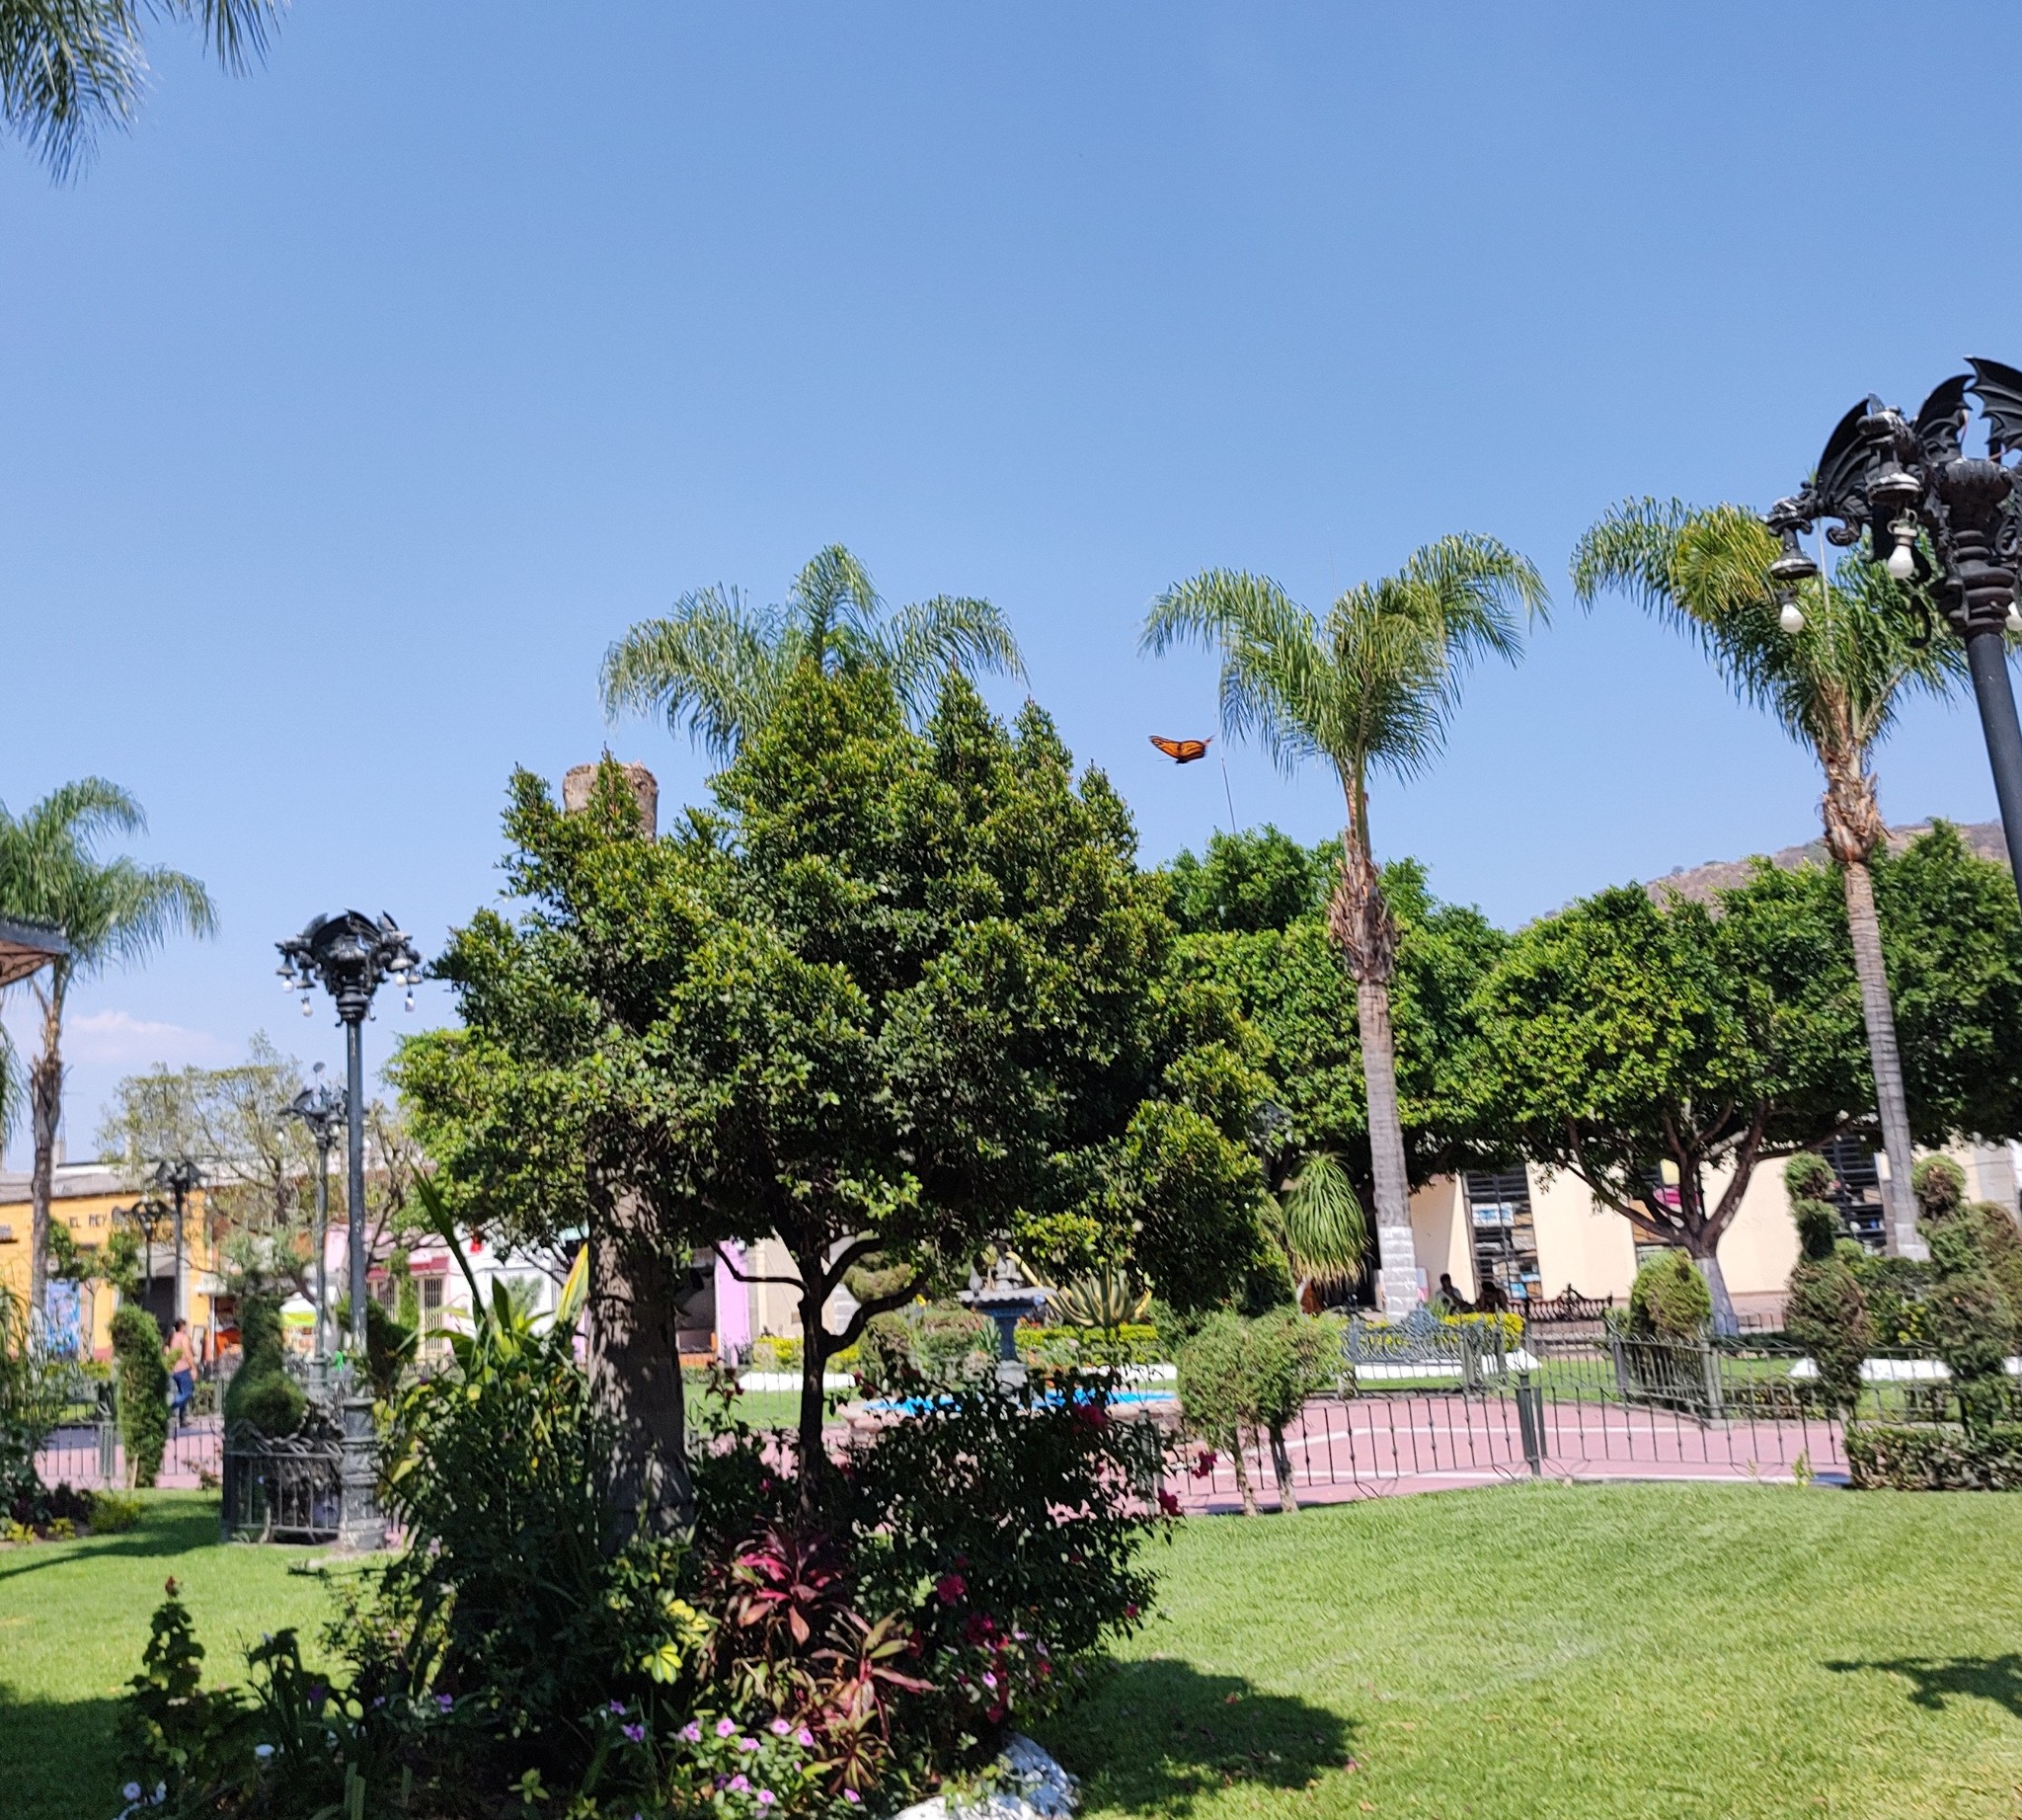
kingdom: Animalia
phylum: Arthropoda
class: Insecta
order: Lepidoptera
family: Nymphalidae
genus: Danaus
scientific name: Danaus plexippus
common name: Monarch
